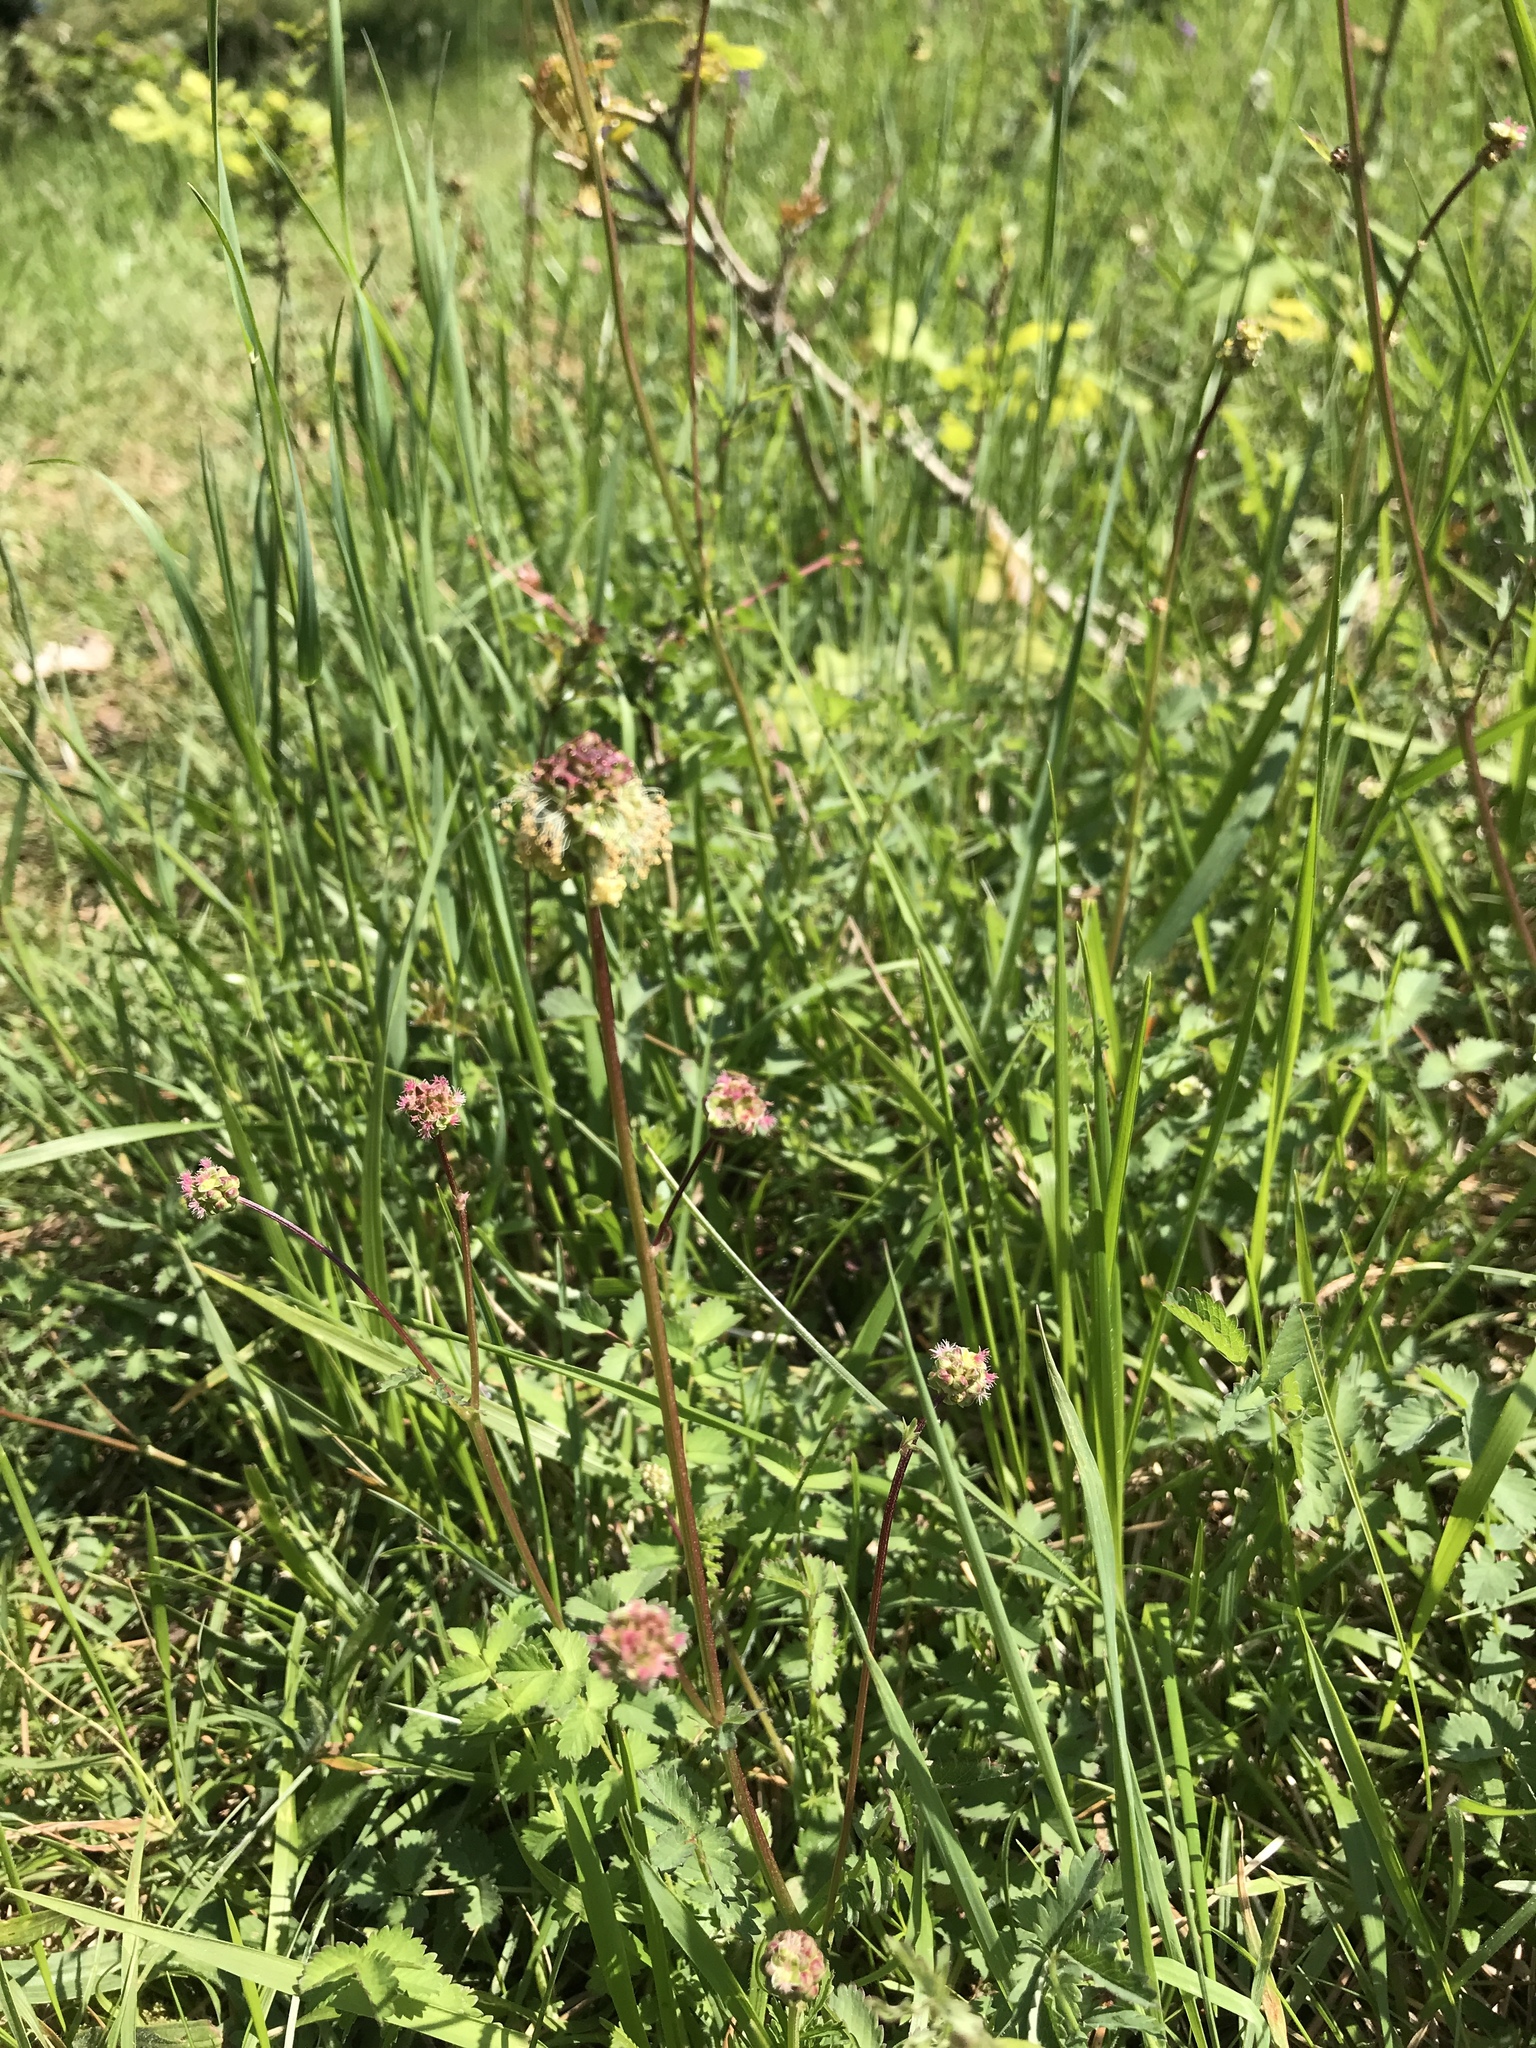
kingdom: Plantae
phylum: Tracheophyta
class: Magnoliopsida
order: Rosales
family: Rosaceae
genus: Poterium
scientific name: Poterium sanguisorba
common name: Salad burnet
